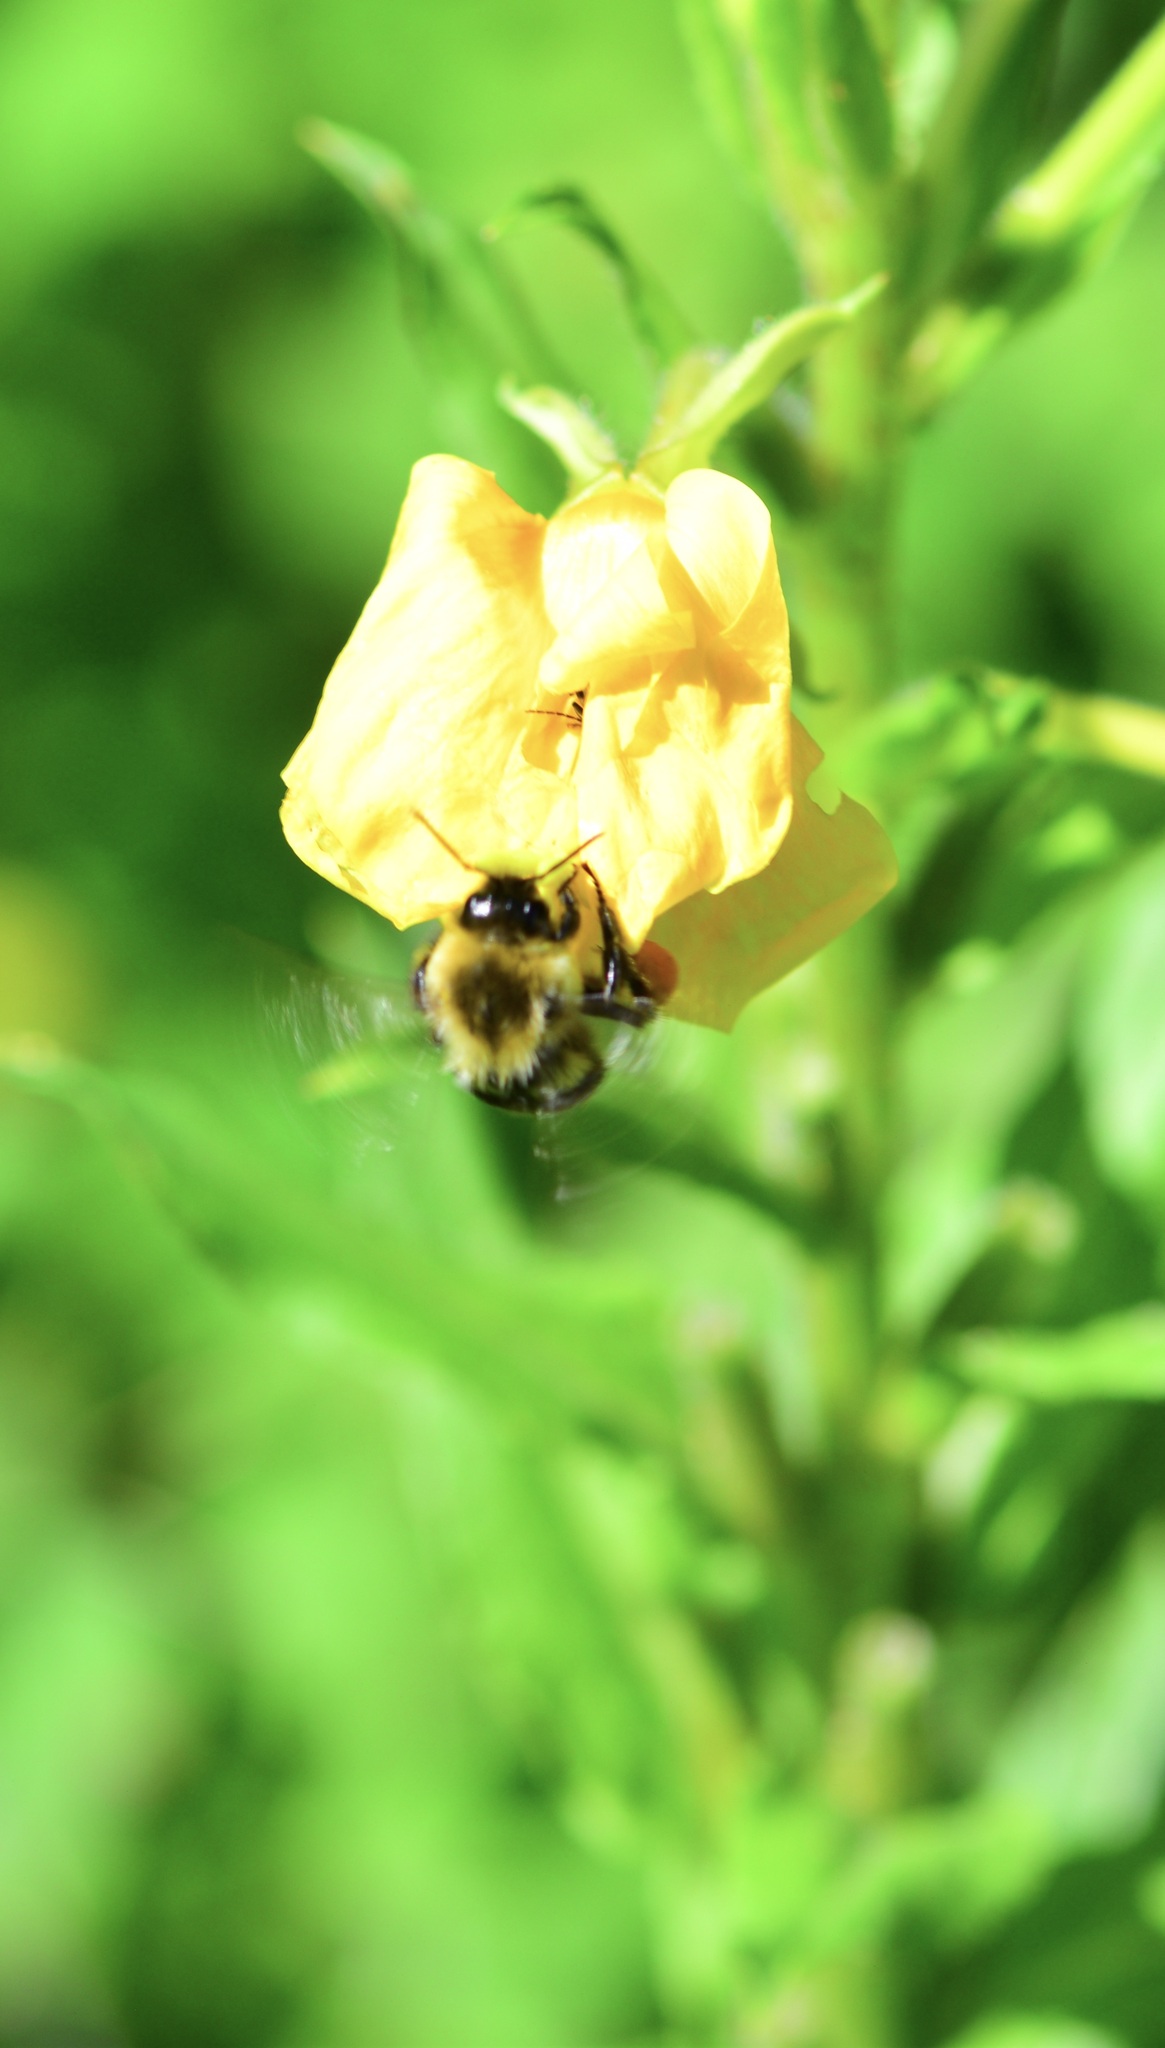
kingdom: Animalia
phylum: Arthropoda
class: Insecta
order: Hymenoptera
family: Apidae
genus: Bombus
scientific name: Bombus impatiens
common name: Common eastern bumble bee
